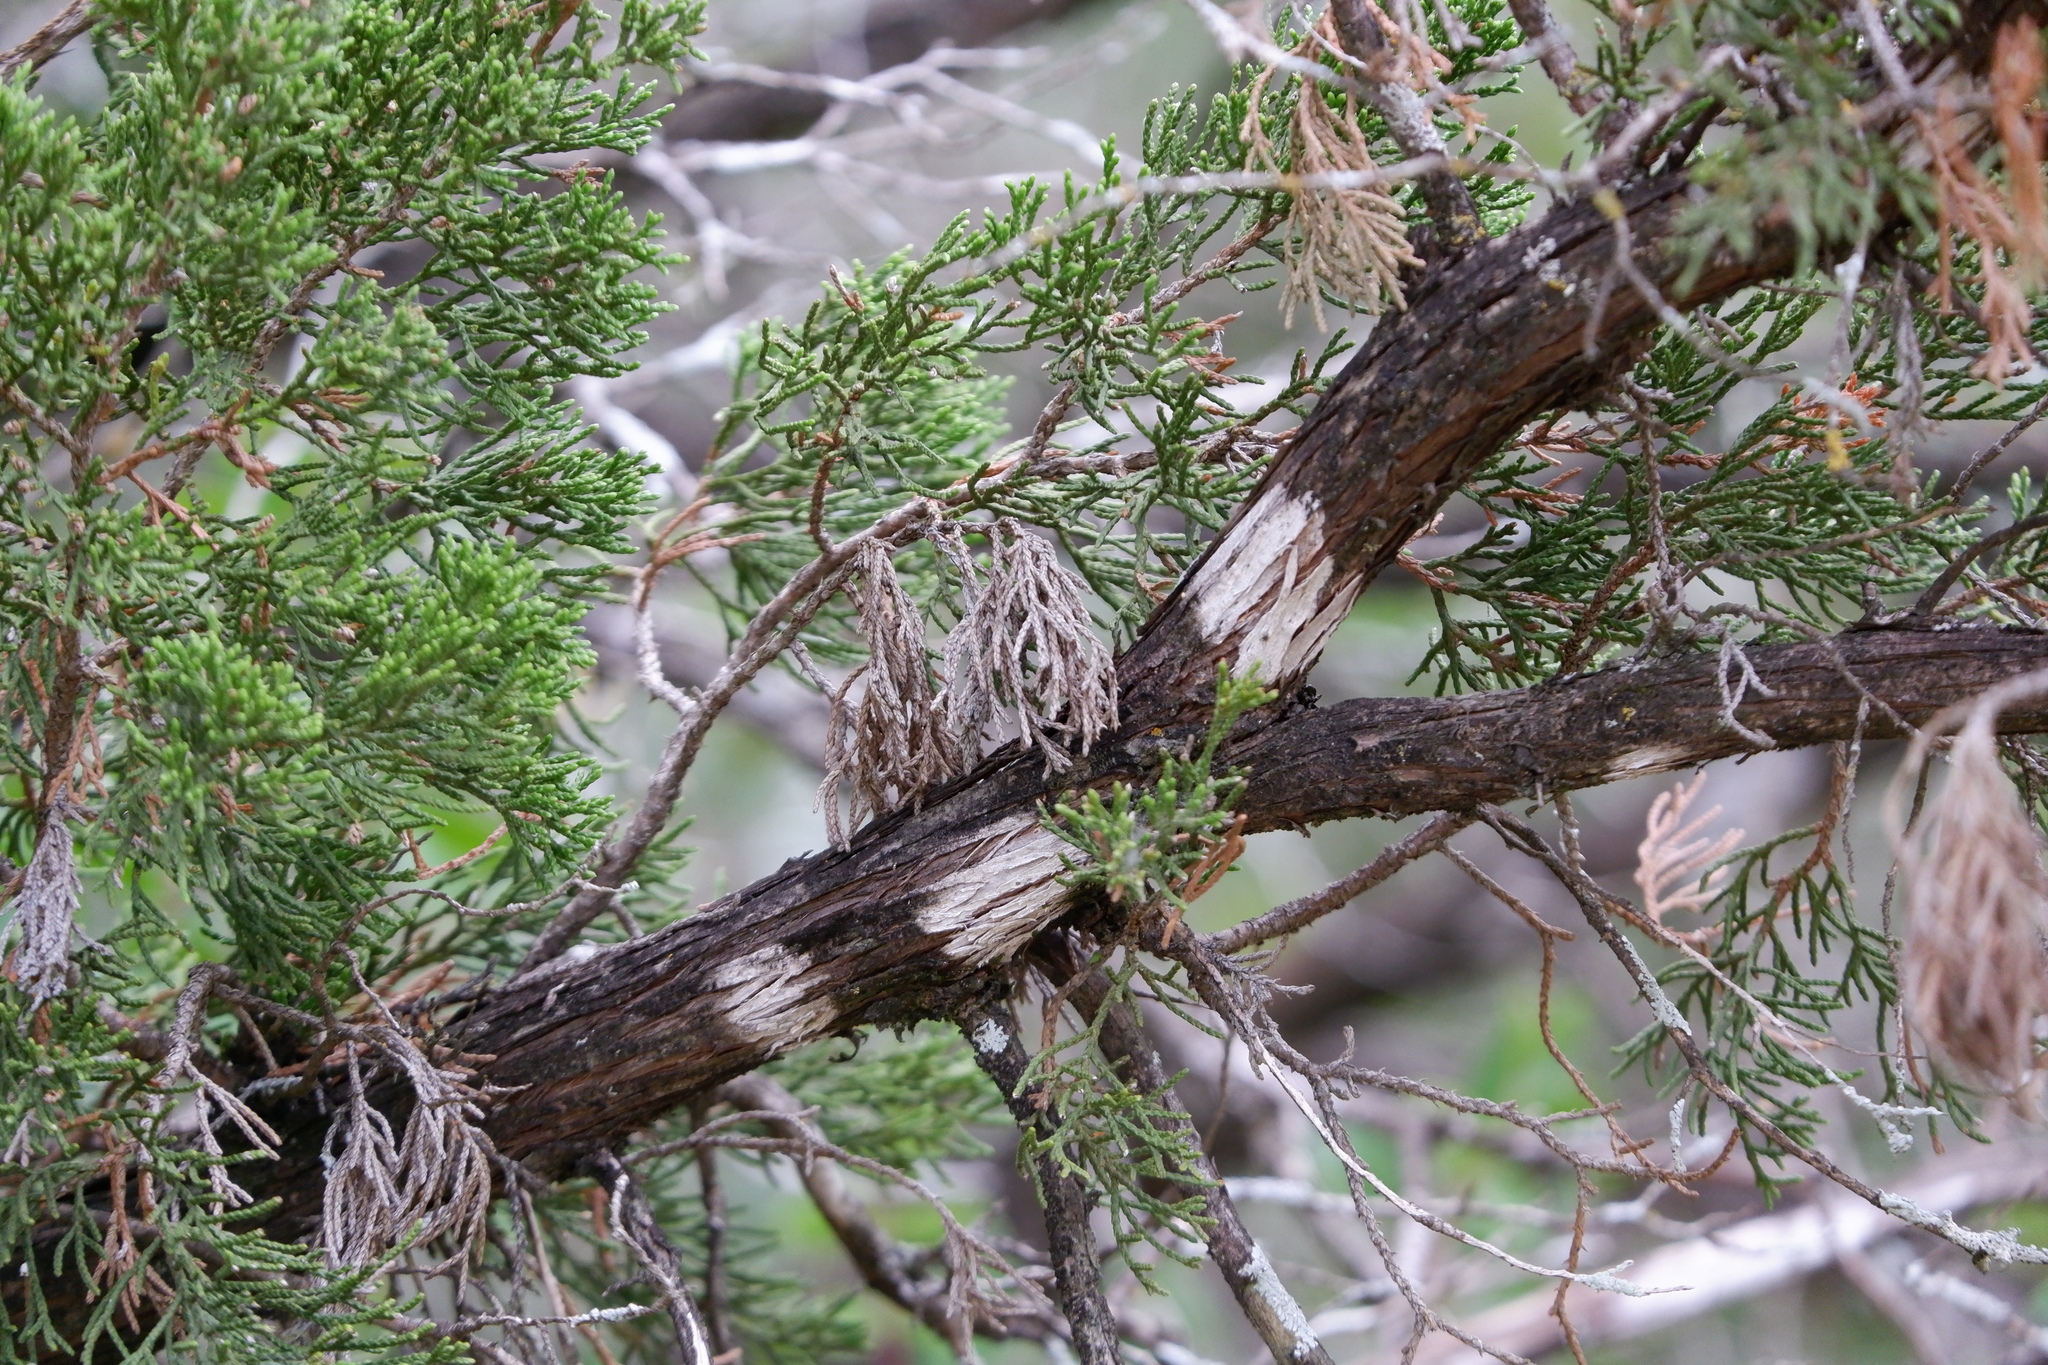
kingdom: Fungi
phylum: Ascomycota
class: Lecanoromycetes
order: Ostropales
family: Stictidaceae
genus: Robergea
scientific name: Robergea
